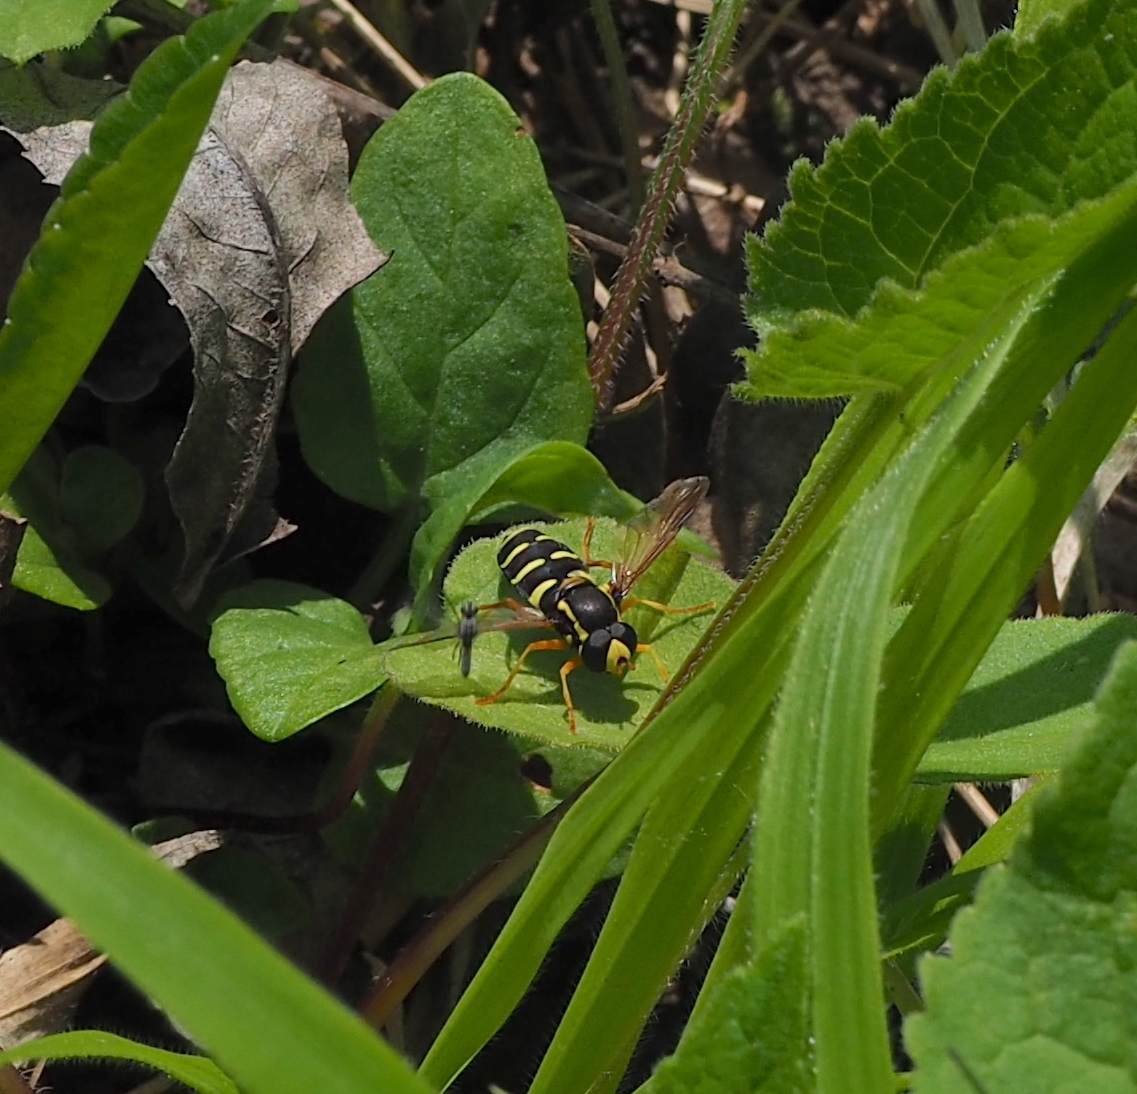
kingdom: Animalia
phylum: Arthropoda
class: Insecta
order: Diptera
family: Syrphidae
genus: Philhelius
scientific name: Philhelius citrofasciata
